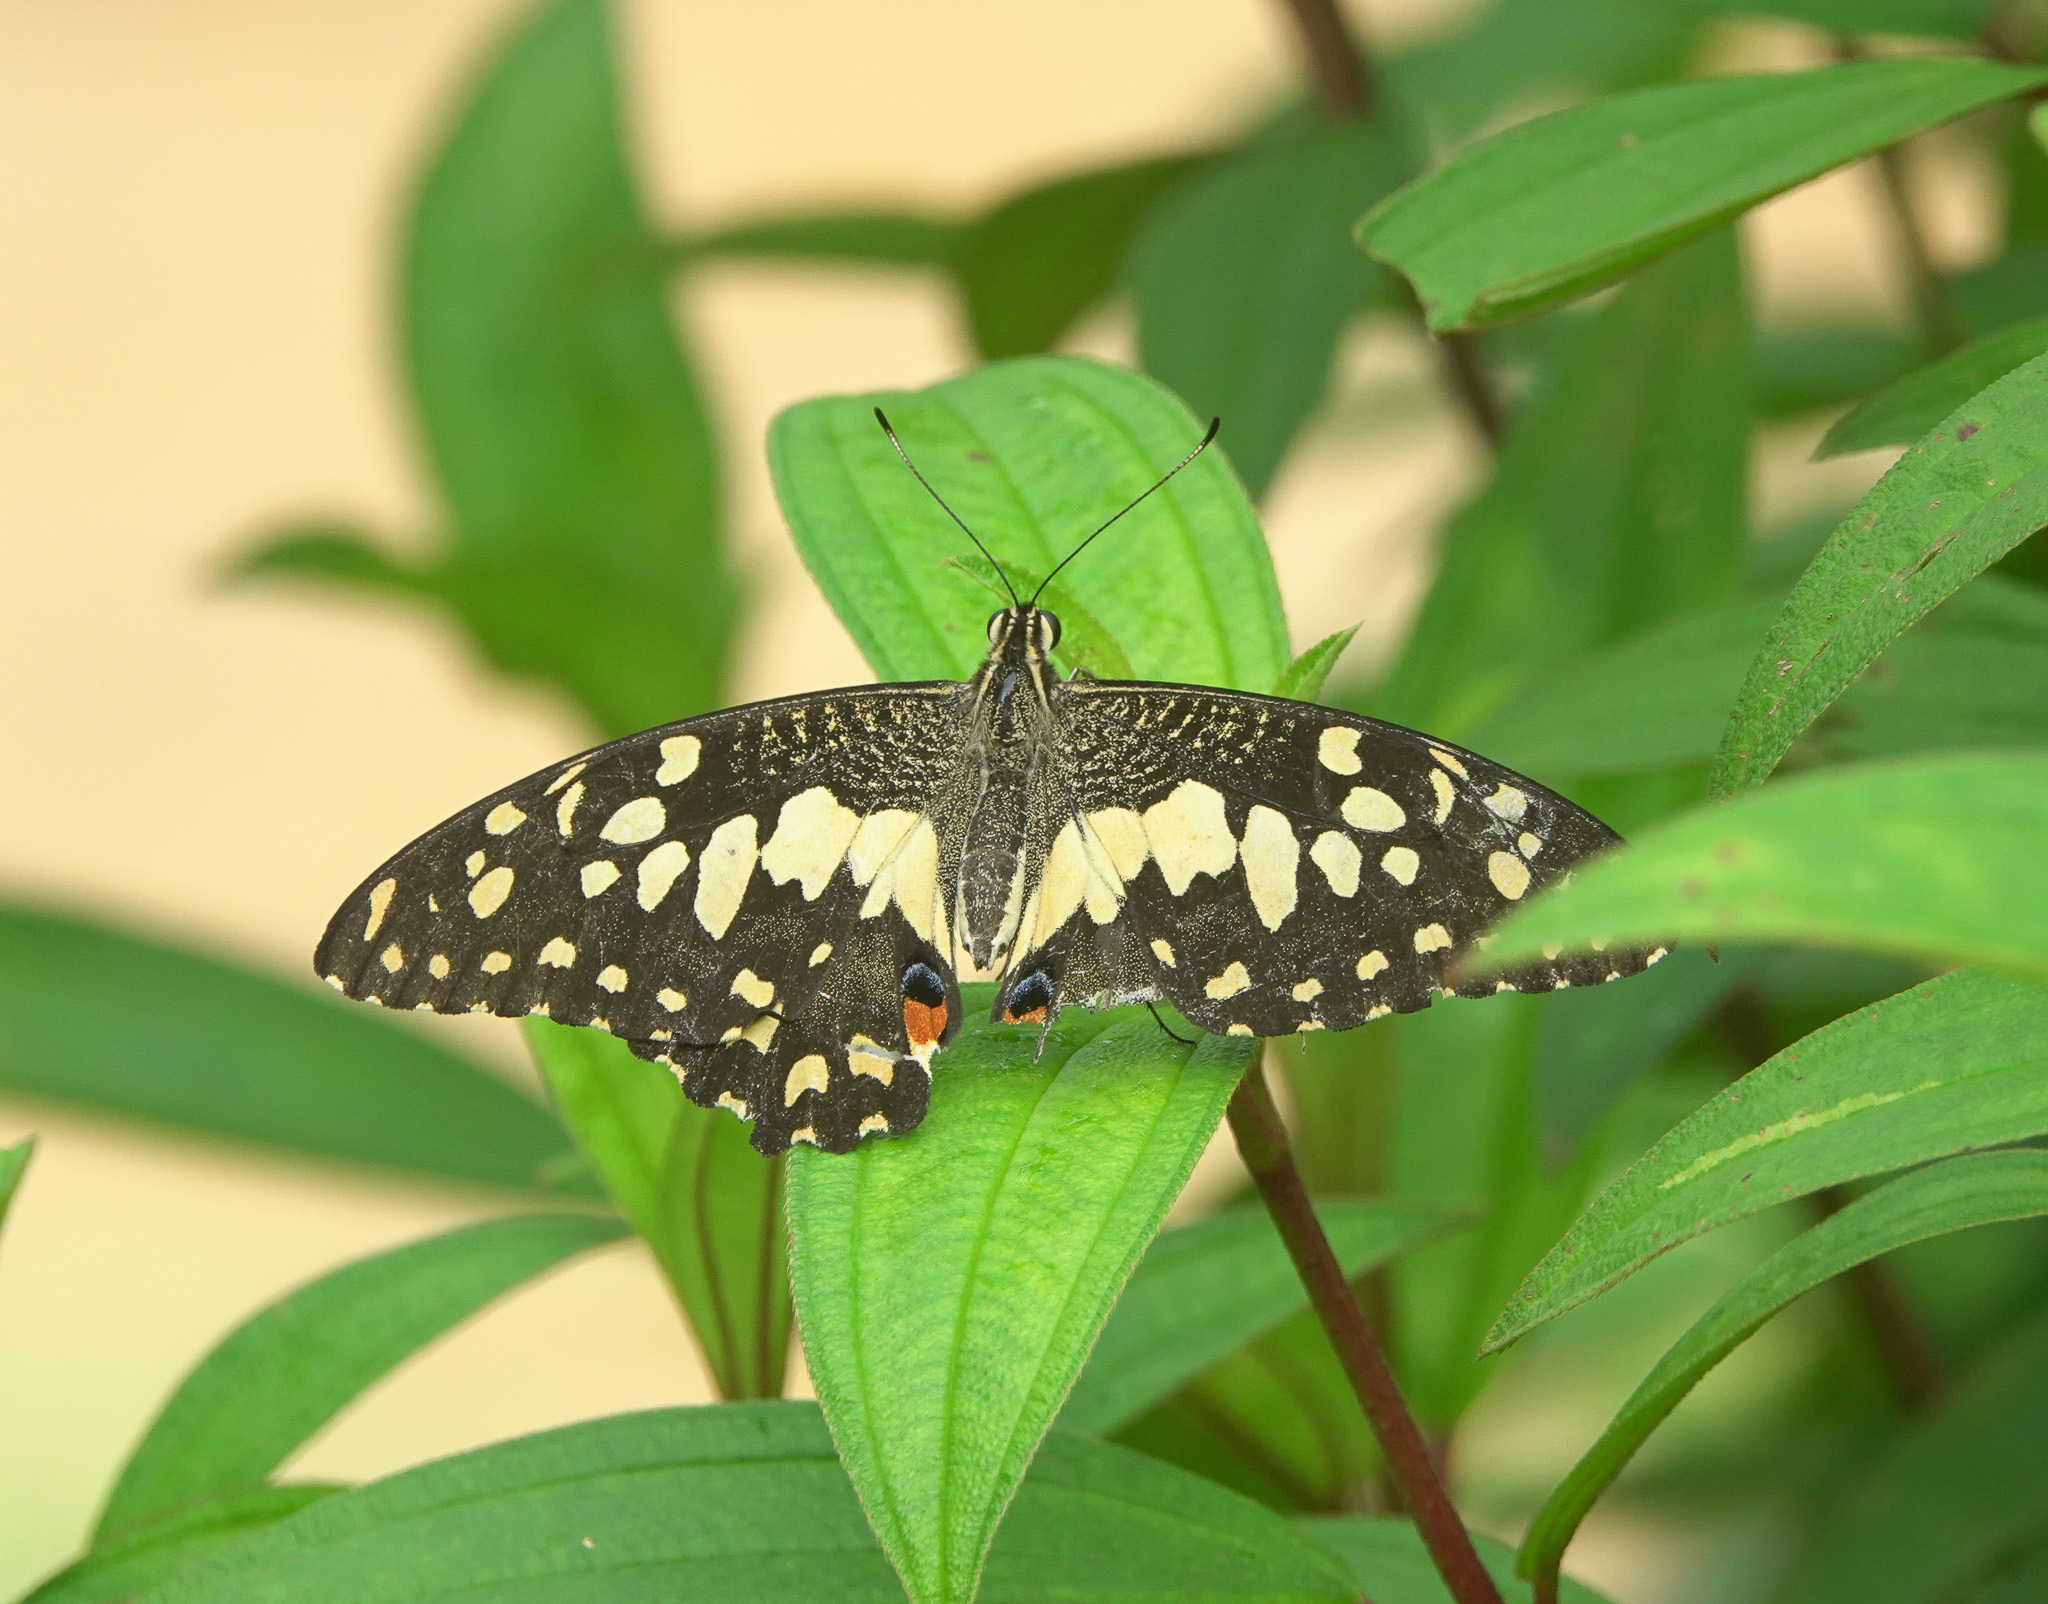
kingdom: Animalia
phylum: Arthropoda
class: Insecta
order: Lepidoptera
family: Papilionidae
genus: Papilio
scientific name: Papilio demoleus
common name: Lime butterfly
